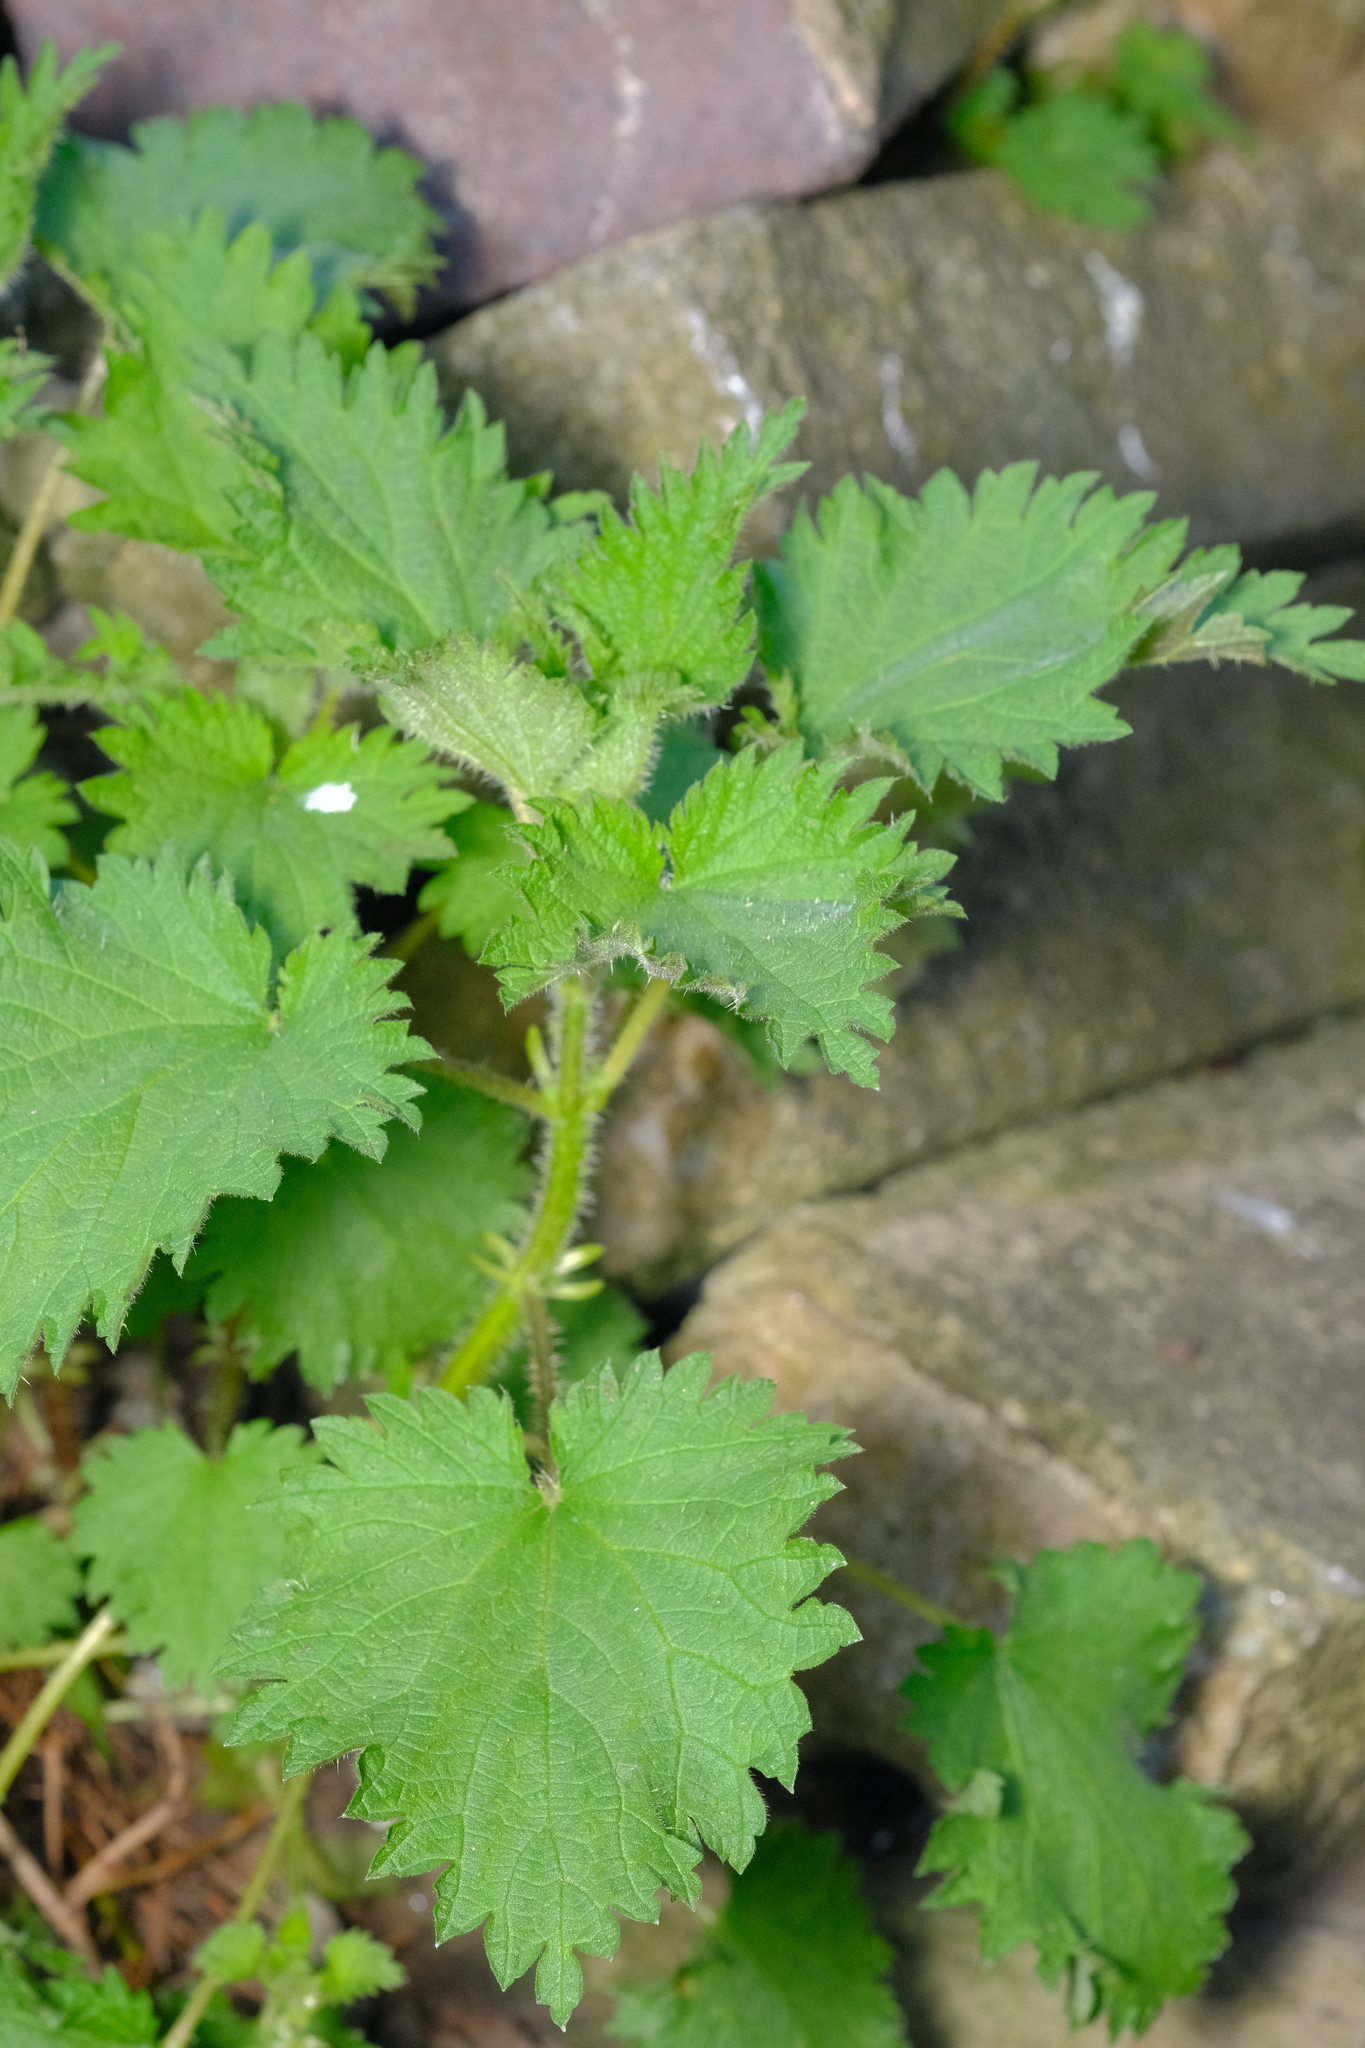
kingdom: Plantae
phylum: Tracheophyta
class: Magnoliopsida
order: Rosales
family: Urticaceae
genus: Urtica
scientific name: Urtica dioica
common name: Common nettle
